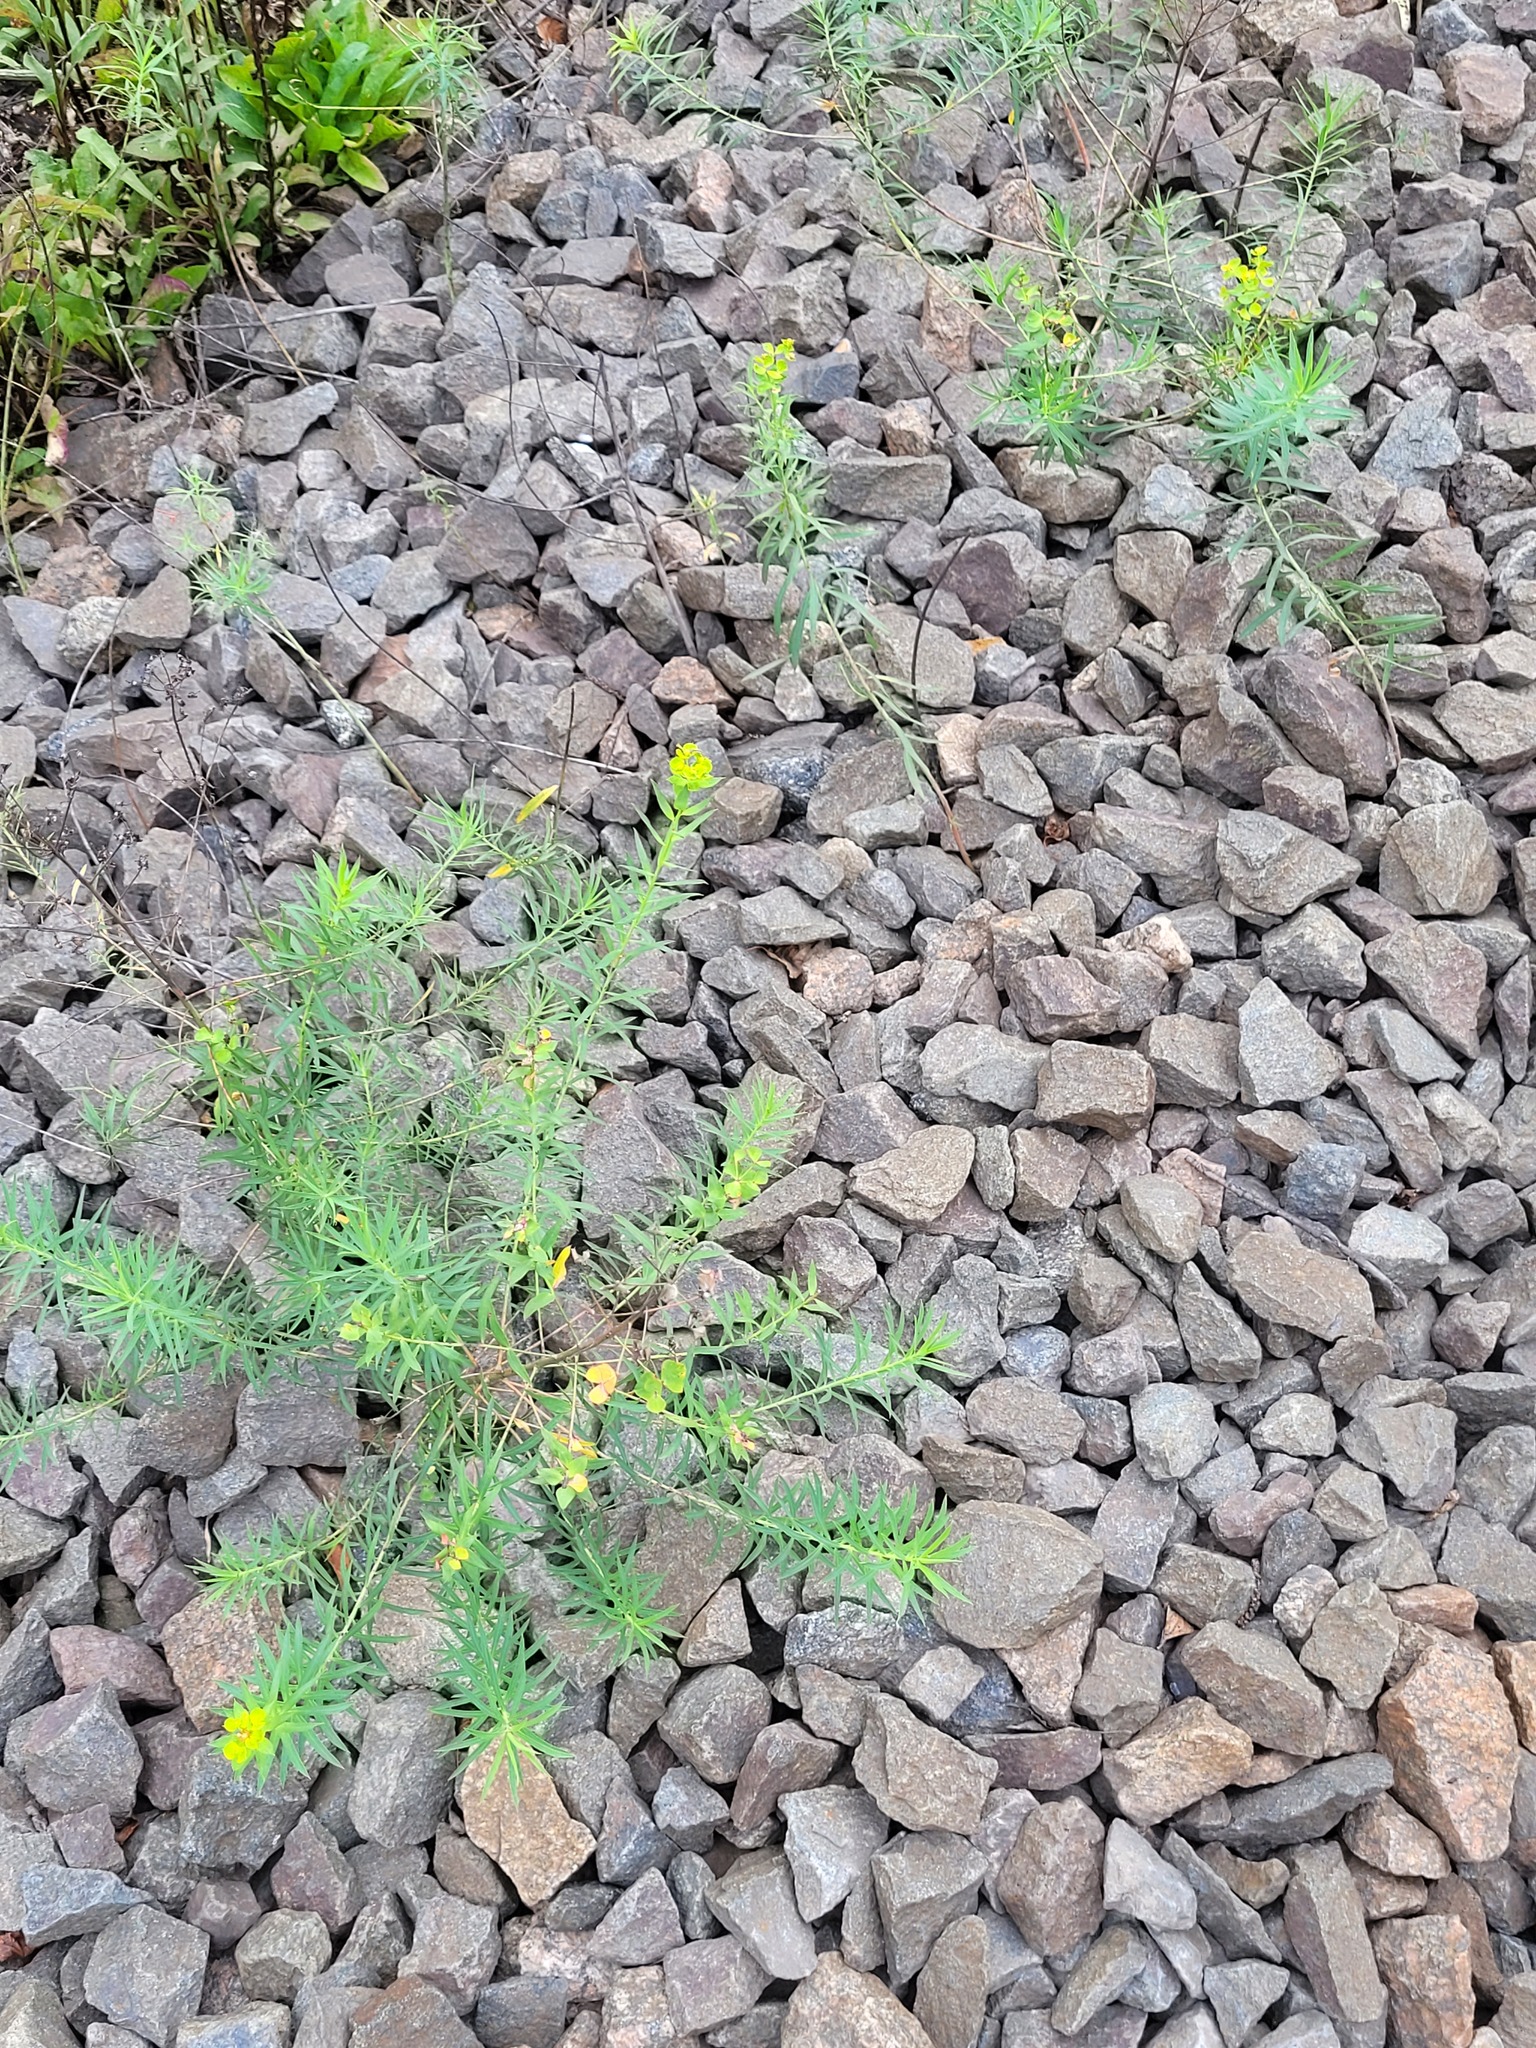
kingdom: Plantae
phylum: Tracheophyta
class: Magnoliopsida
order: Malpighiales
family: Euphorbiaceae
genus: Euphorbia
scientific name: Euphorbia virgata
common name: Leafy spurge
